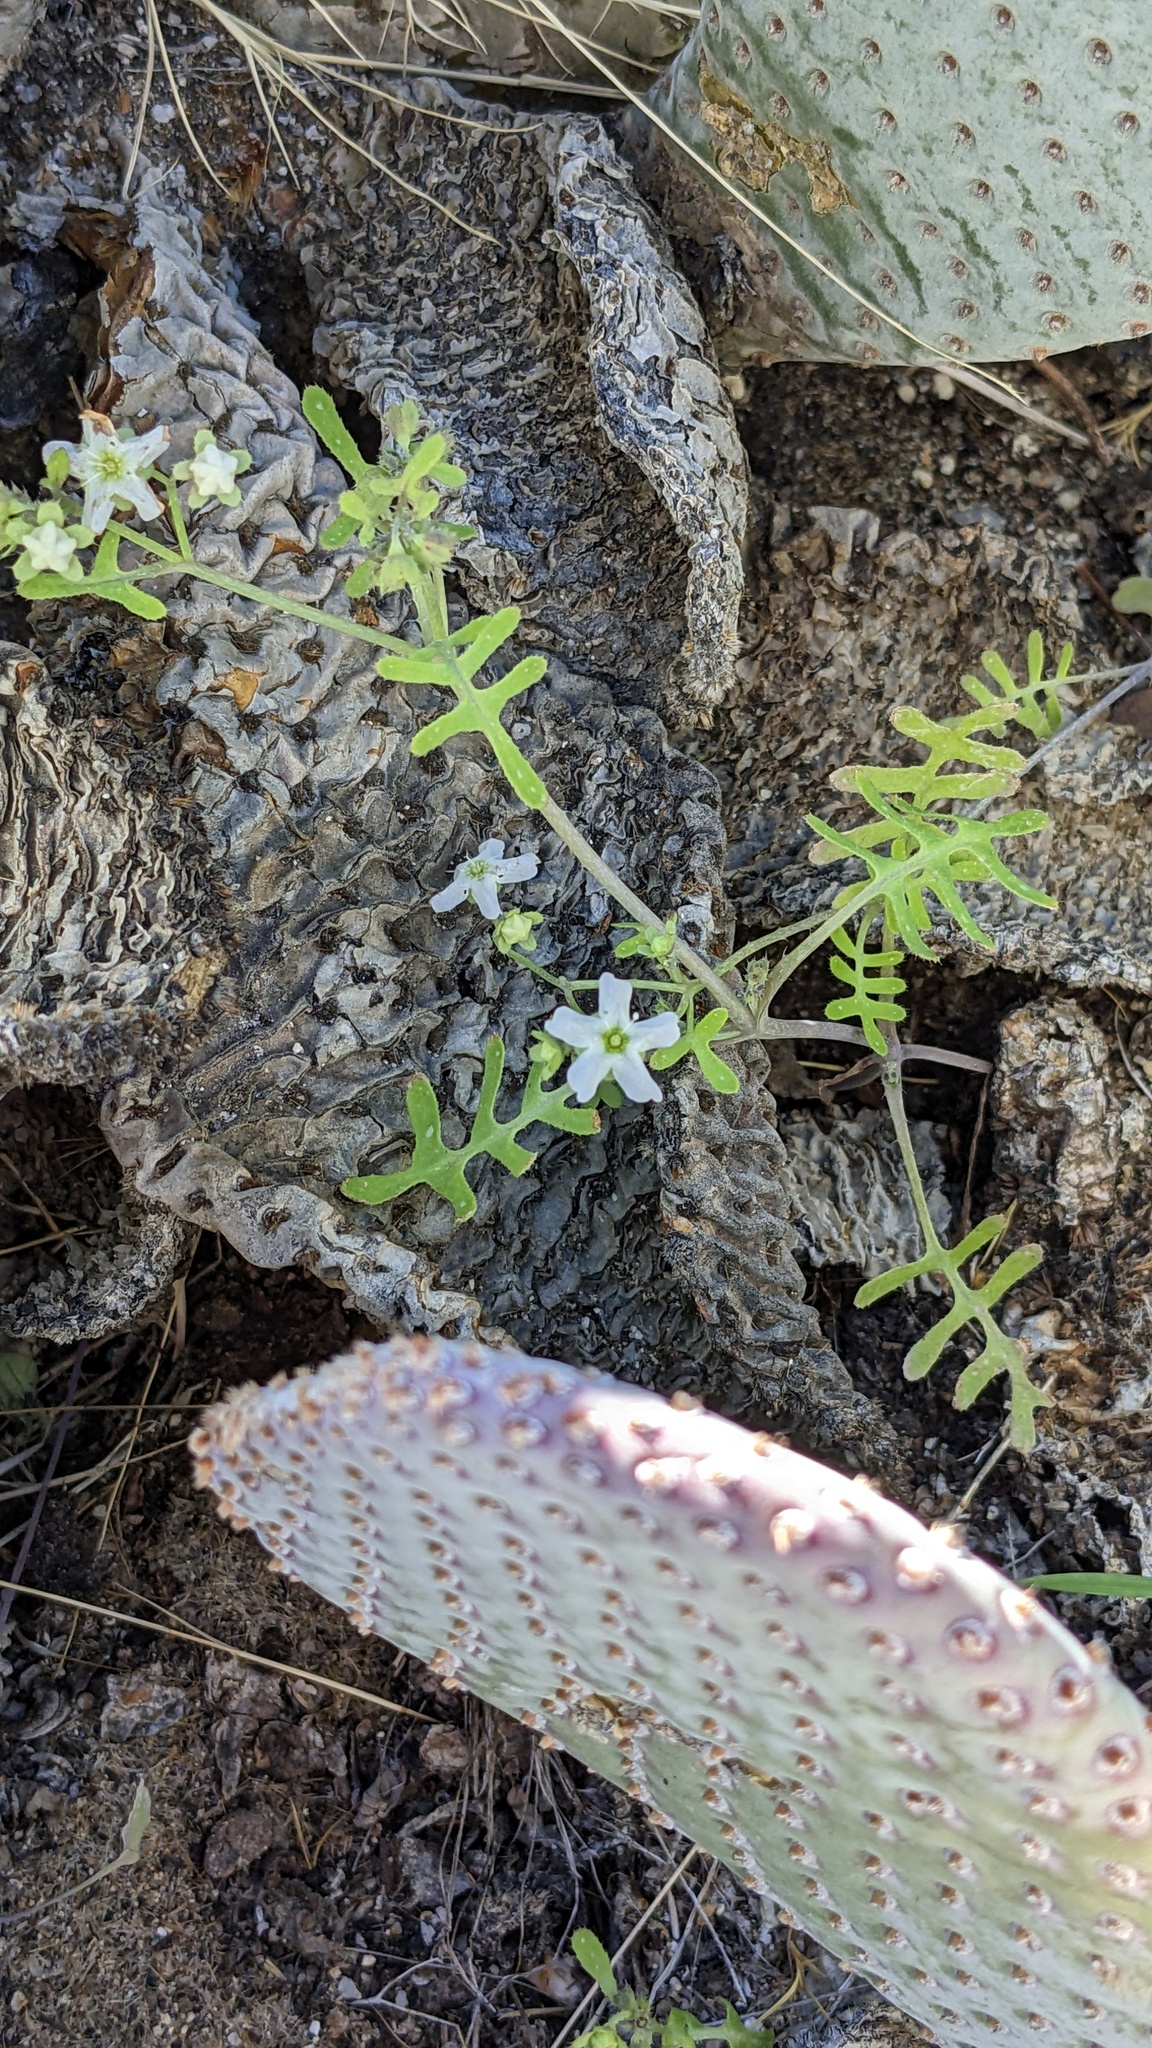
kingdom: Plantae
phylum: Tracheophyta
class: Magnoliopsida
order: Boraginales
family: Hydrophyllaceae
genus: Pholistoma
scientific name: Pholistoma membranaceum
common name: White fiesta-flower
